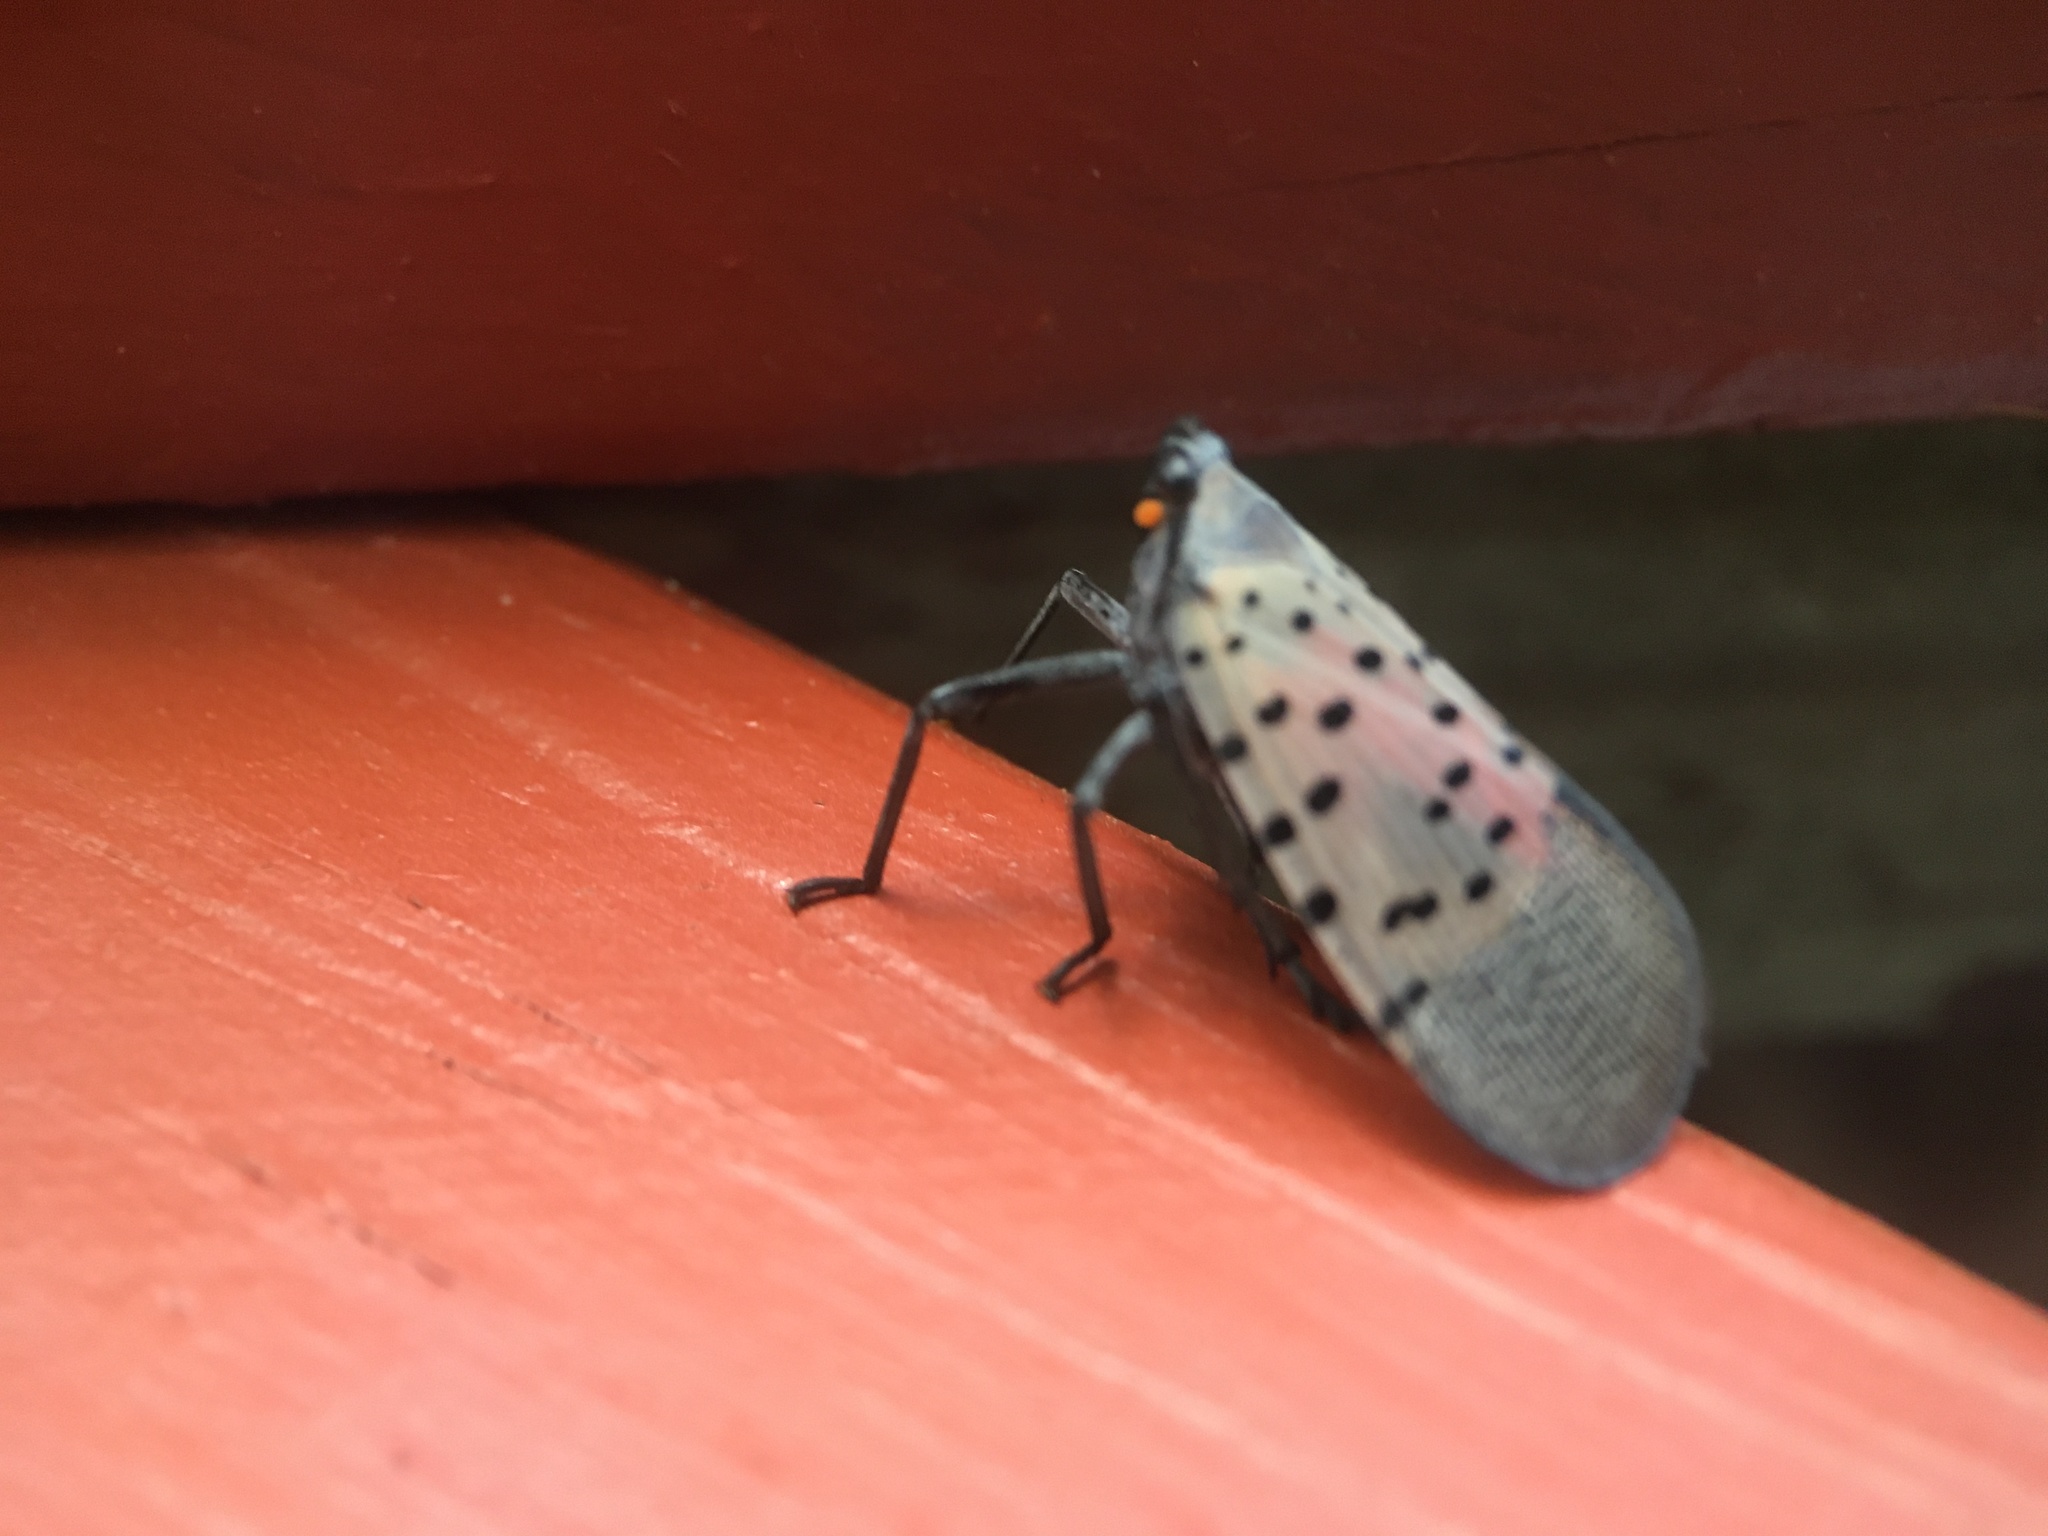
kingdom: Animalia
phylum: Arthropoda
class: Insecta
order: Hemiptera
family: Fulgoridae
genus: Lycorma
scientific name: Lycorma delicatula
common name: Spotted lanternfly
